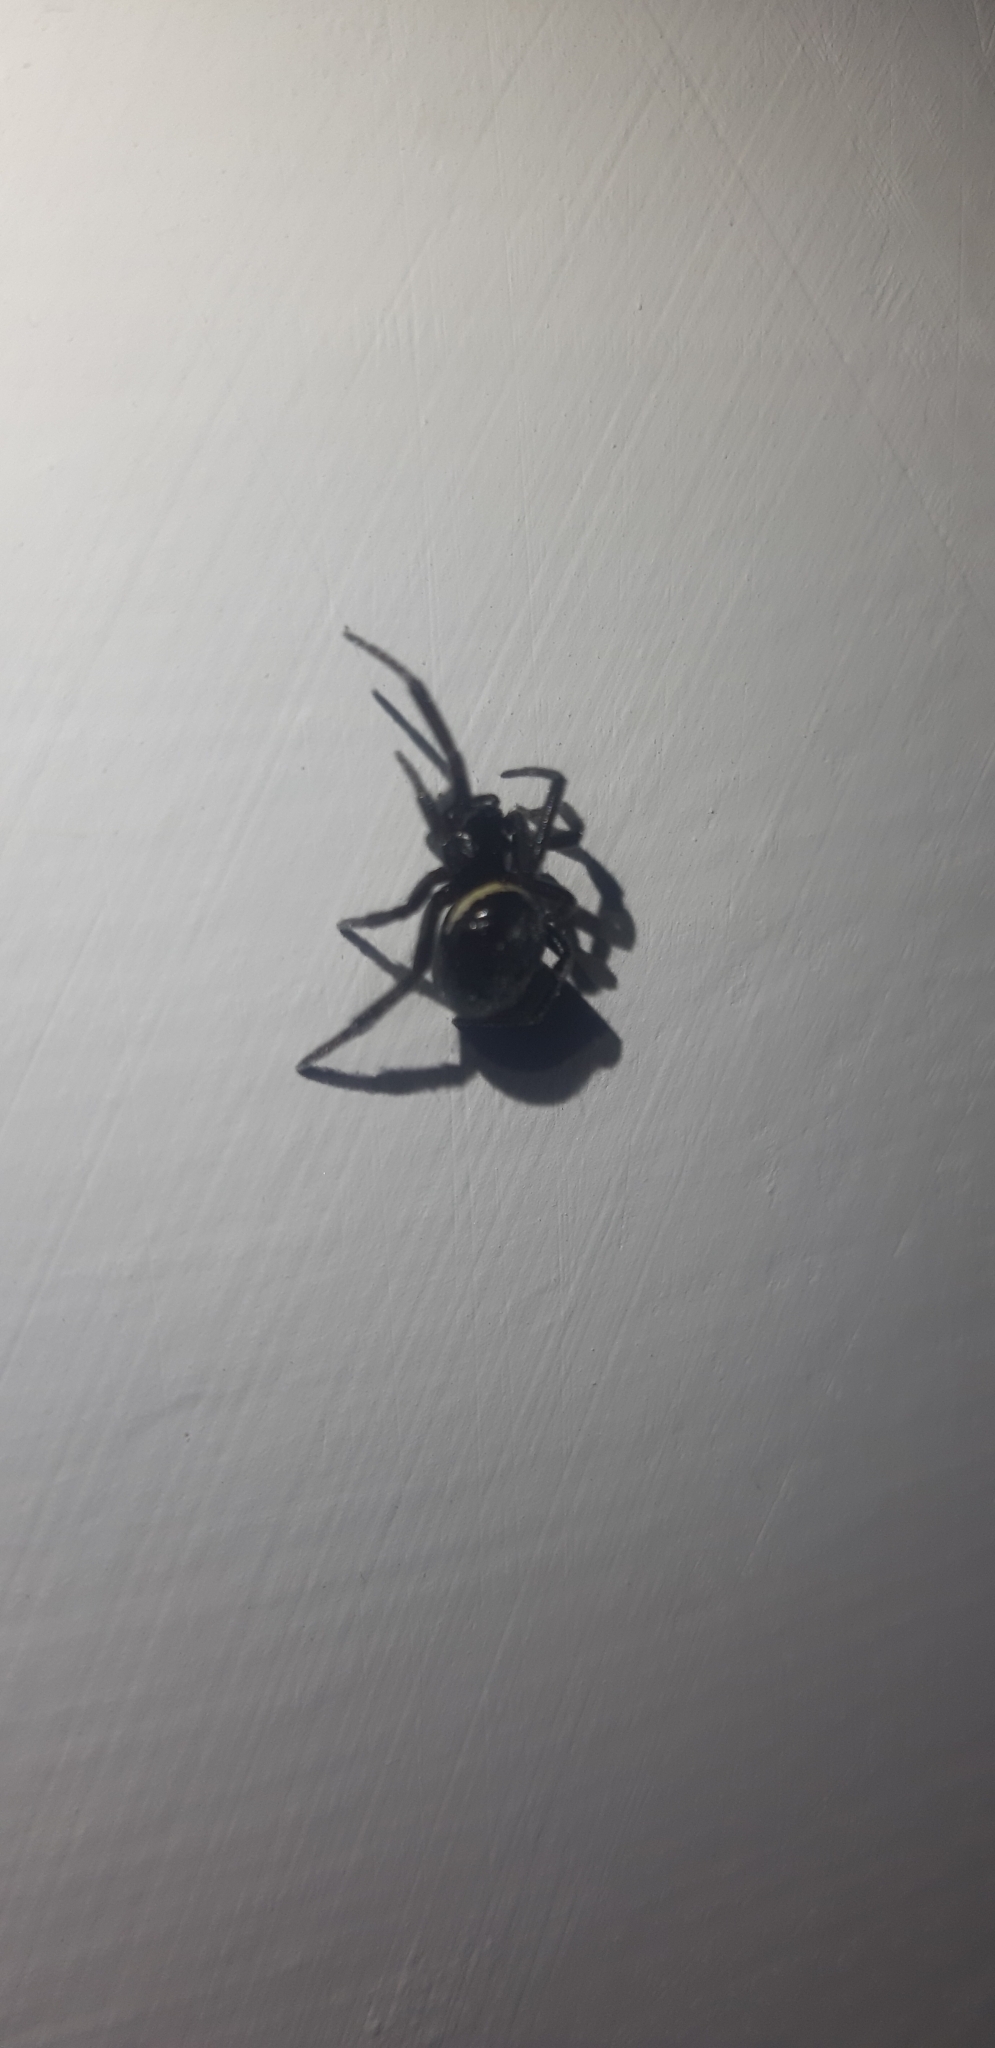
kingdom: Animalia
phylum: Arthropoda
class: Arachnida
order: Araneae
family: Theridiidae
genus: Steatoda
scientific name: Steatoda paykulliana
